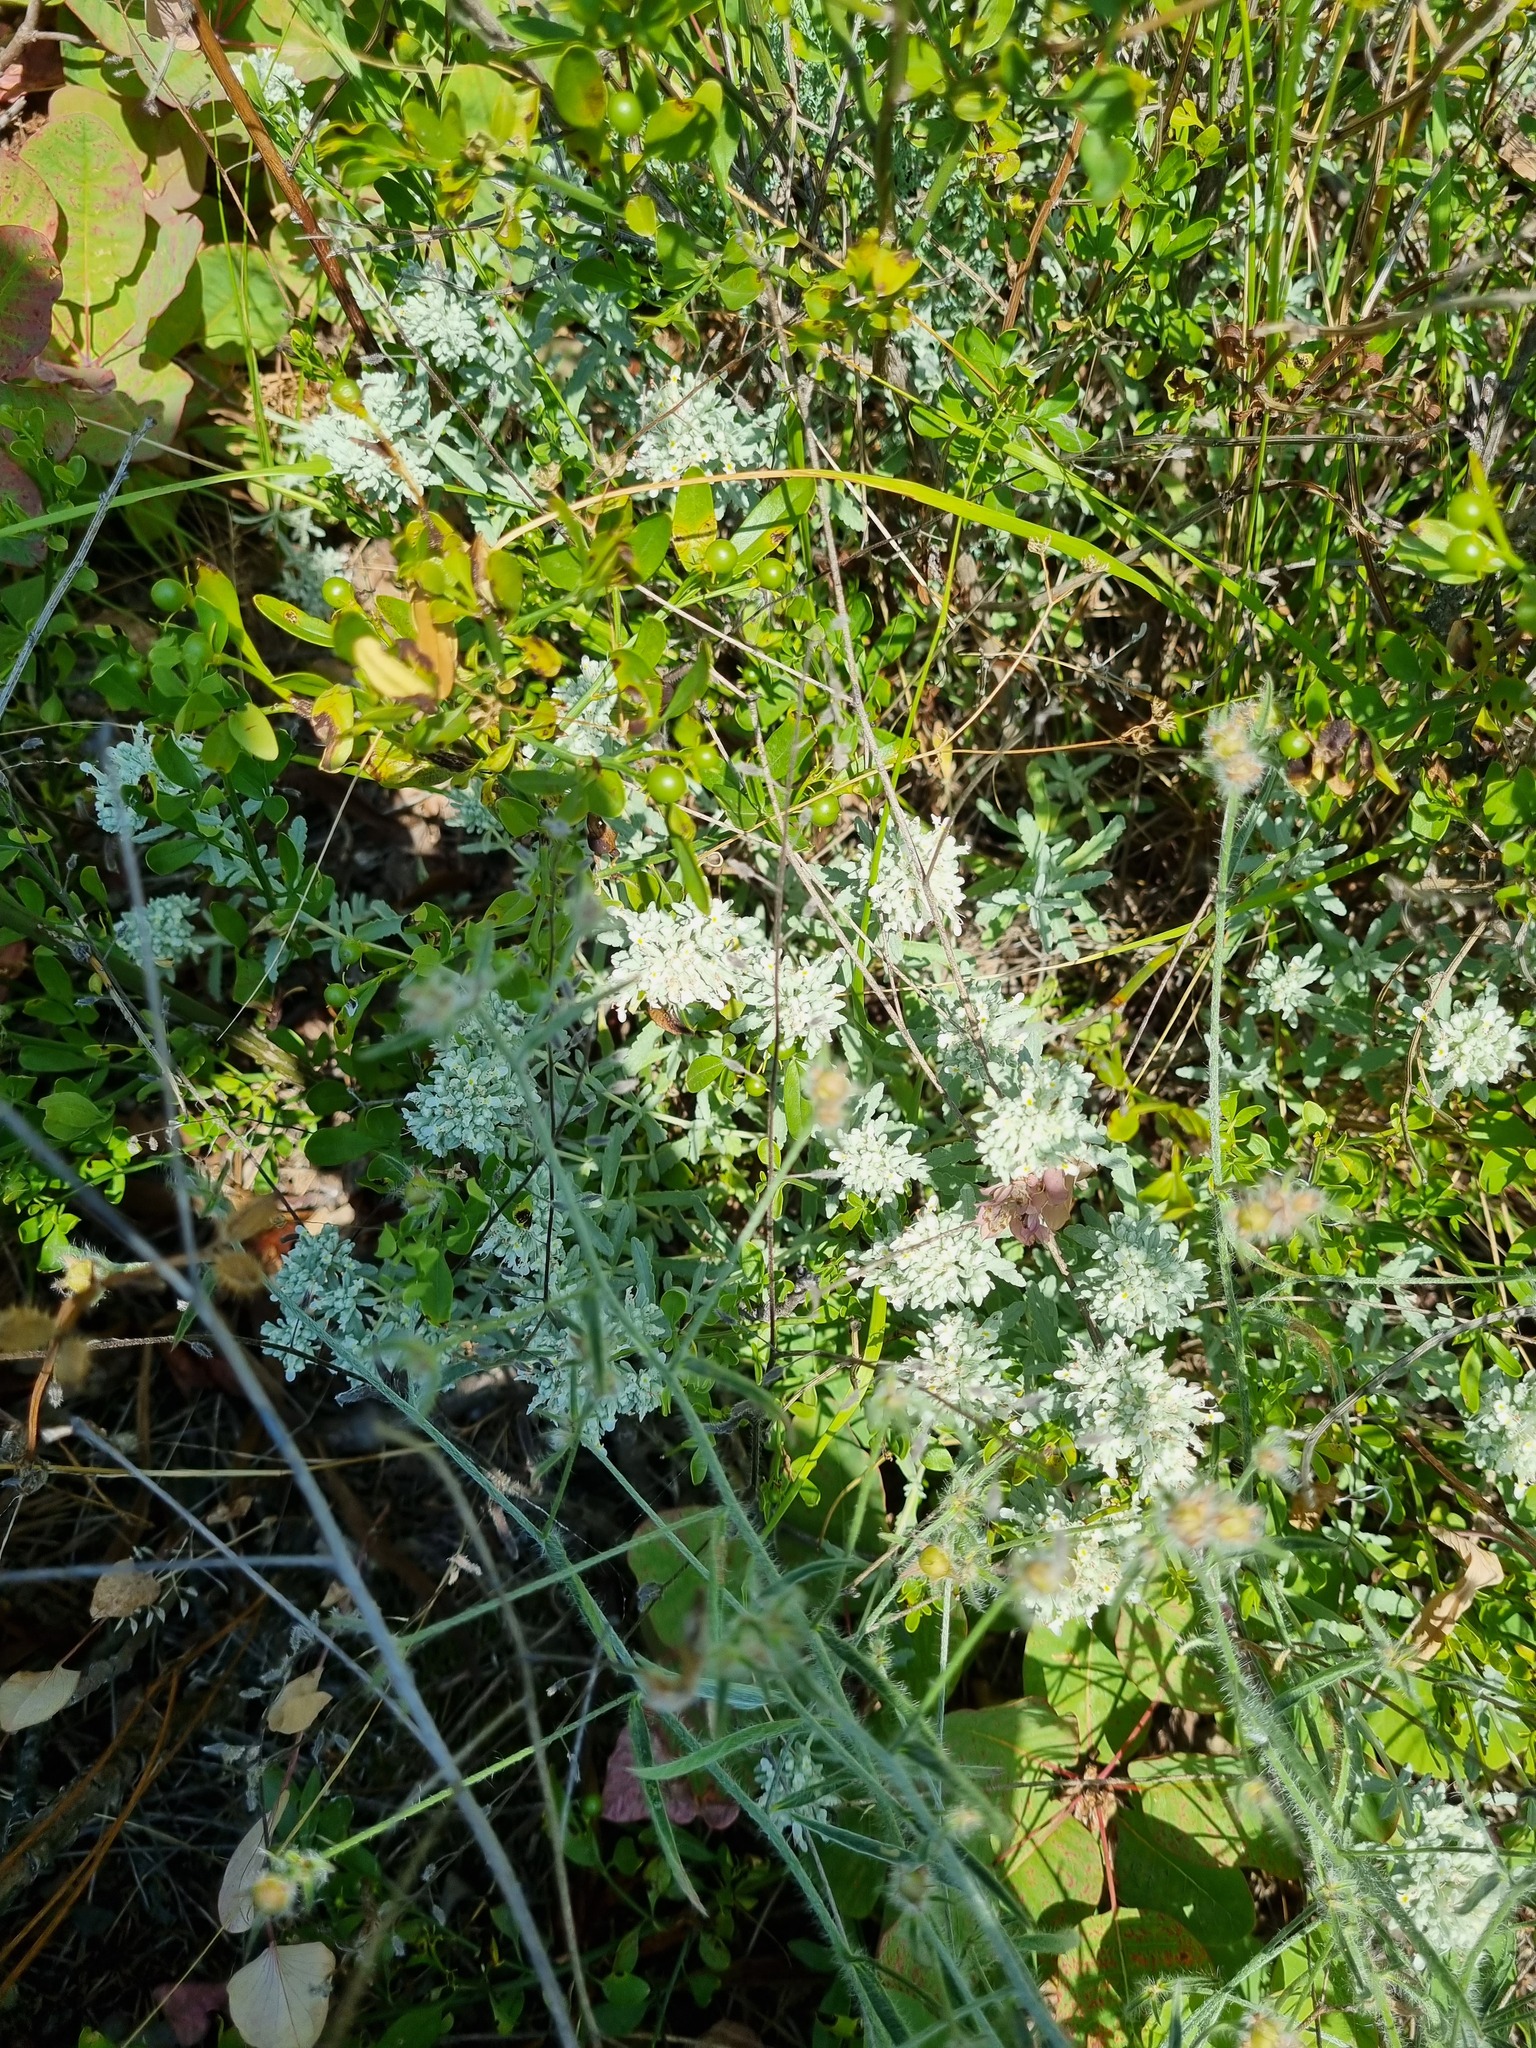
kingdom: Plantae
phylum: Tracheophyta
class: Magnoliopsida
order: Solanales
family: Convolvulaceae
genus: Convolvulus
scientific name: Convolvulus cantabrica
